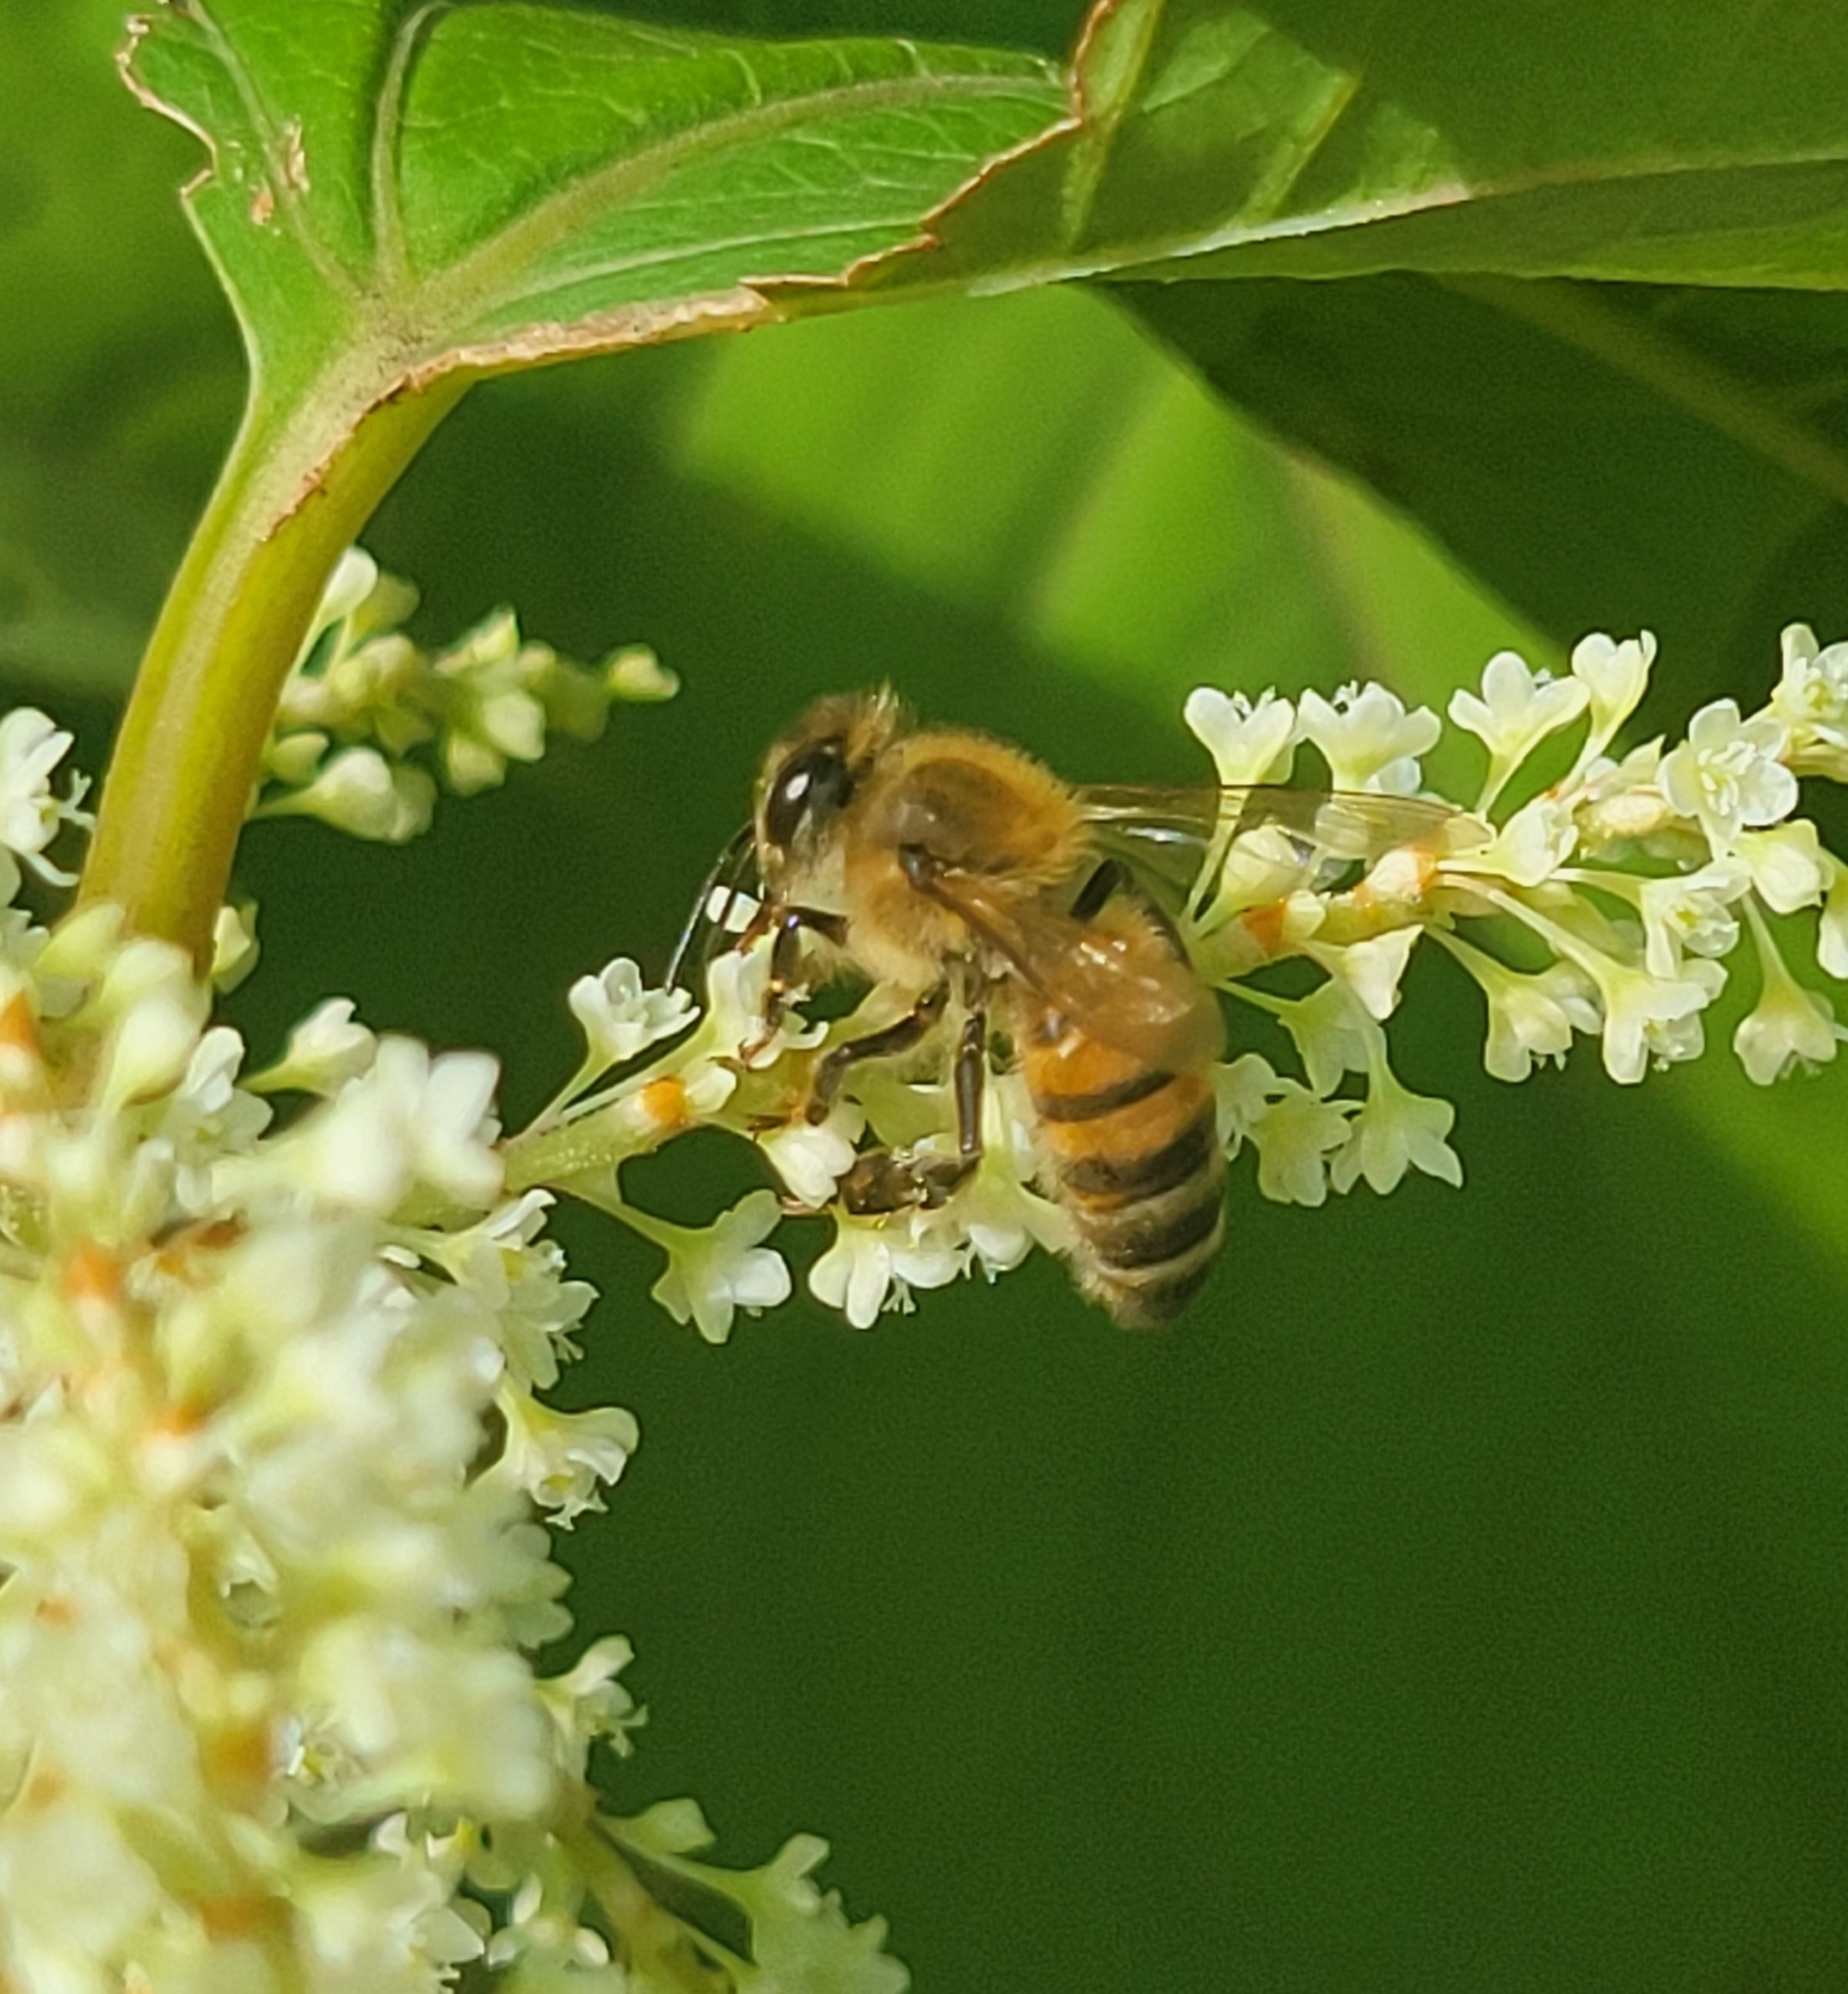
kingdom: Animalia
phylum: Arthropoda
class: Insecta
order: Hymenoptera
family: Apidae
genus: Apis
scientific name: Apis mellifera
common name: Honey bee
